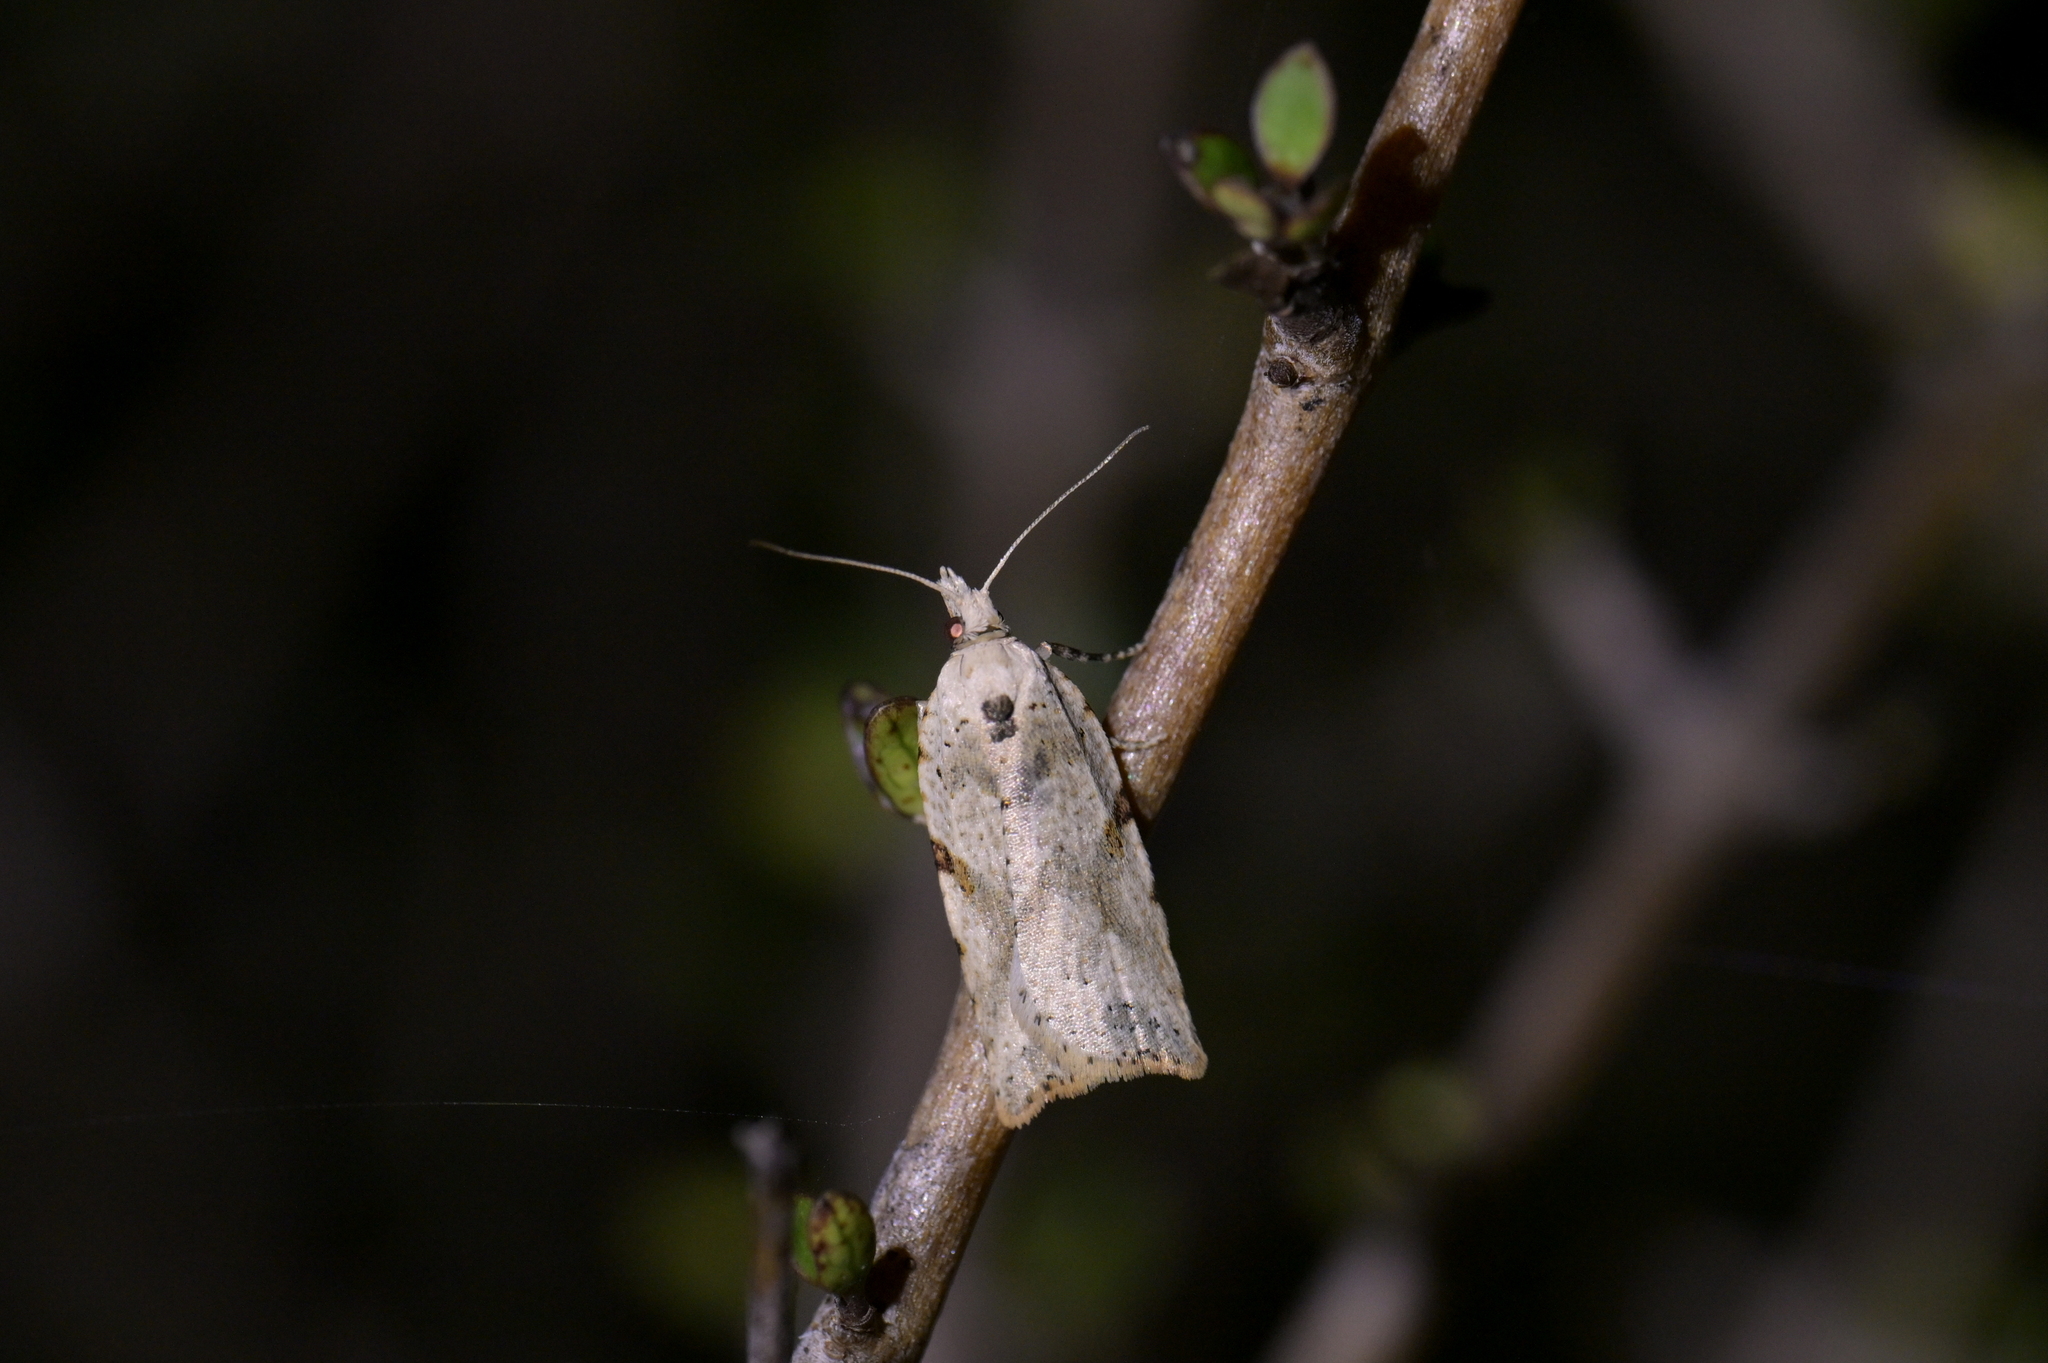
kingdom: Animalia
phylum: Arthropoda
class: Insecta
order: Lepidoptera
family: Tortricidae
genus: Leucotenes
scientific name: Leucotenes coprosmae
